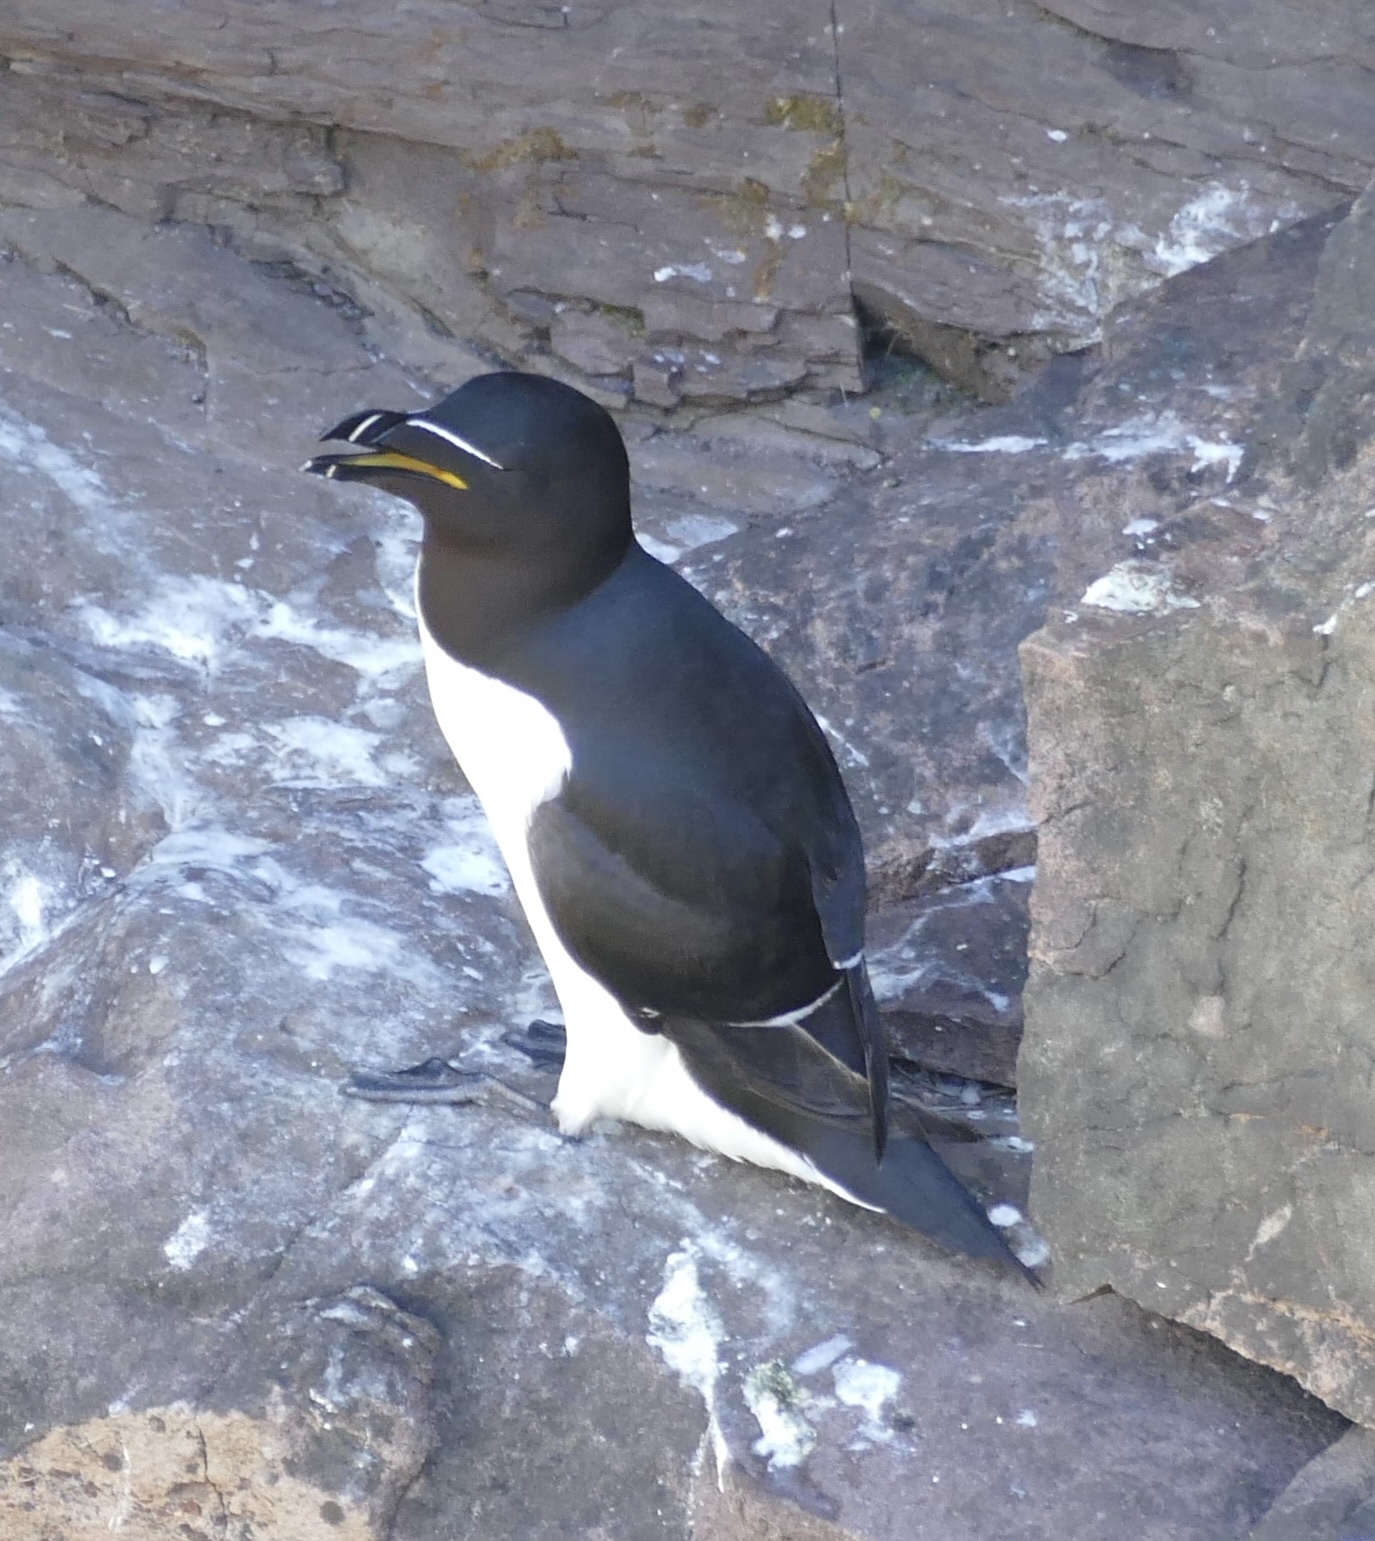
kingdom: Animalia
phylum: Chordata
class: Aves
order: Charadriiformes
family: Alcidae
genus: Alca
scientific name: Alca torda
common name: Razorbill
